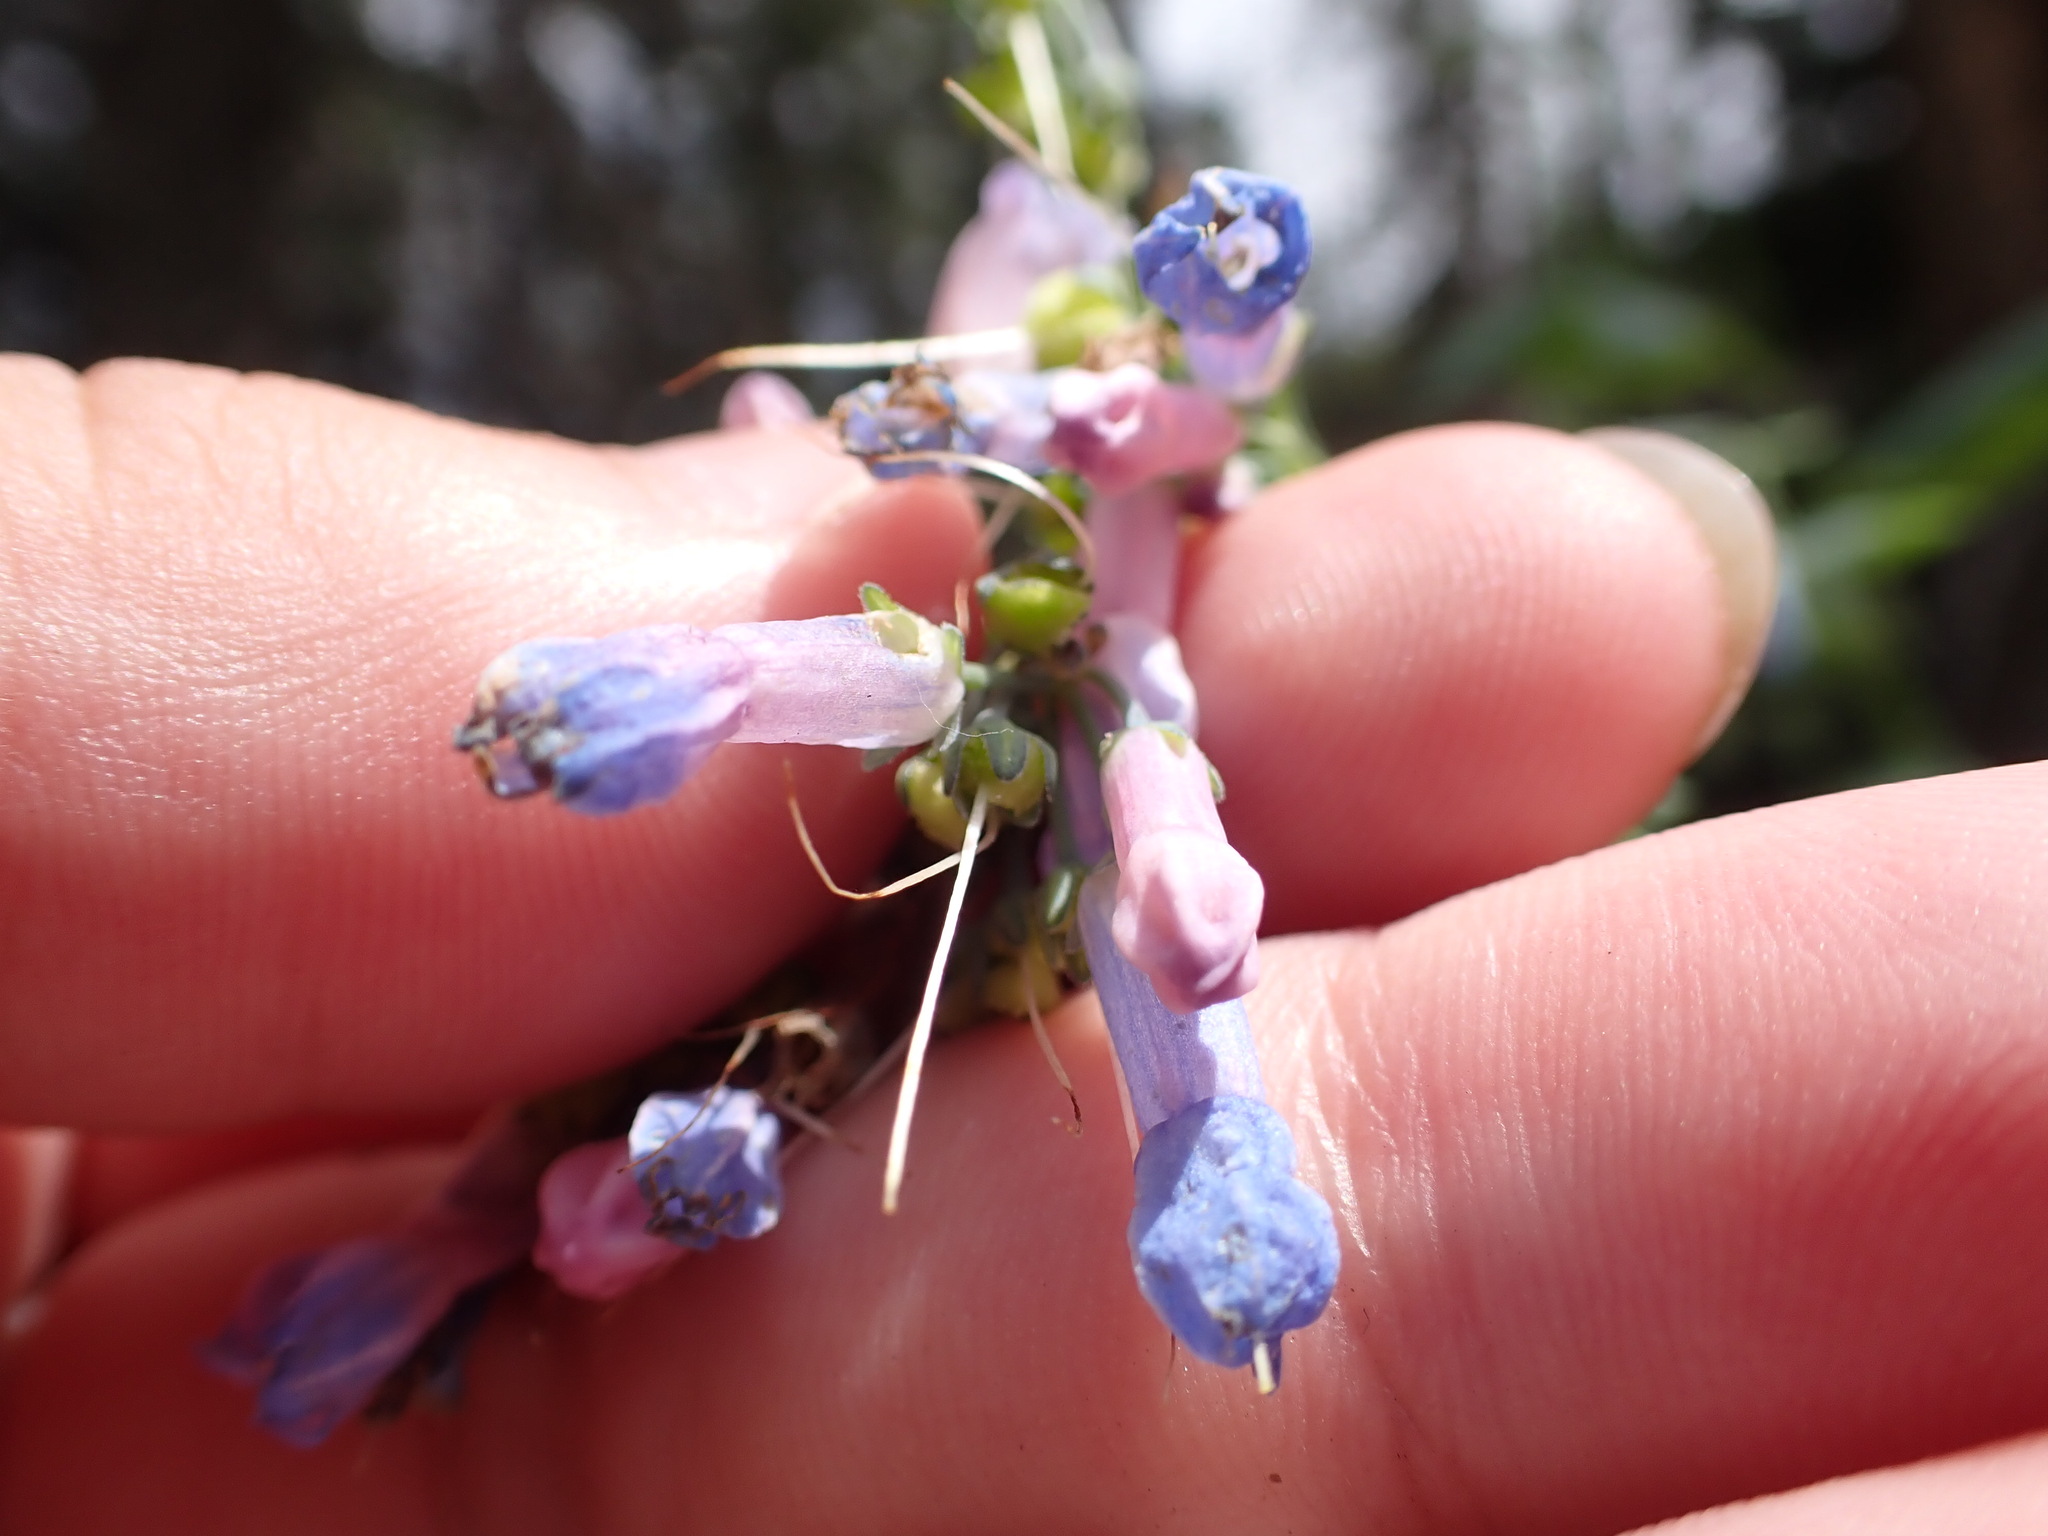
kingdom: Plantae
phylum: Tracheophyta
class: Magnoliopsida
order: Boraginales
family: Boraginaceae
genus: Mertensia
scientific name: Mertensia ciliata
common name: Tall chiming-bells
